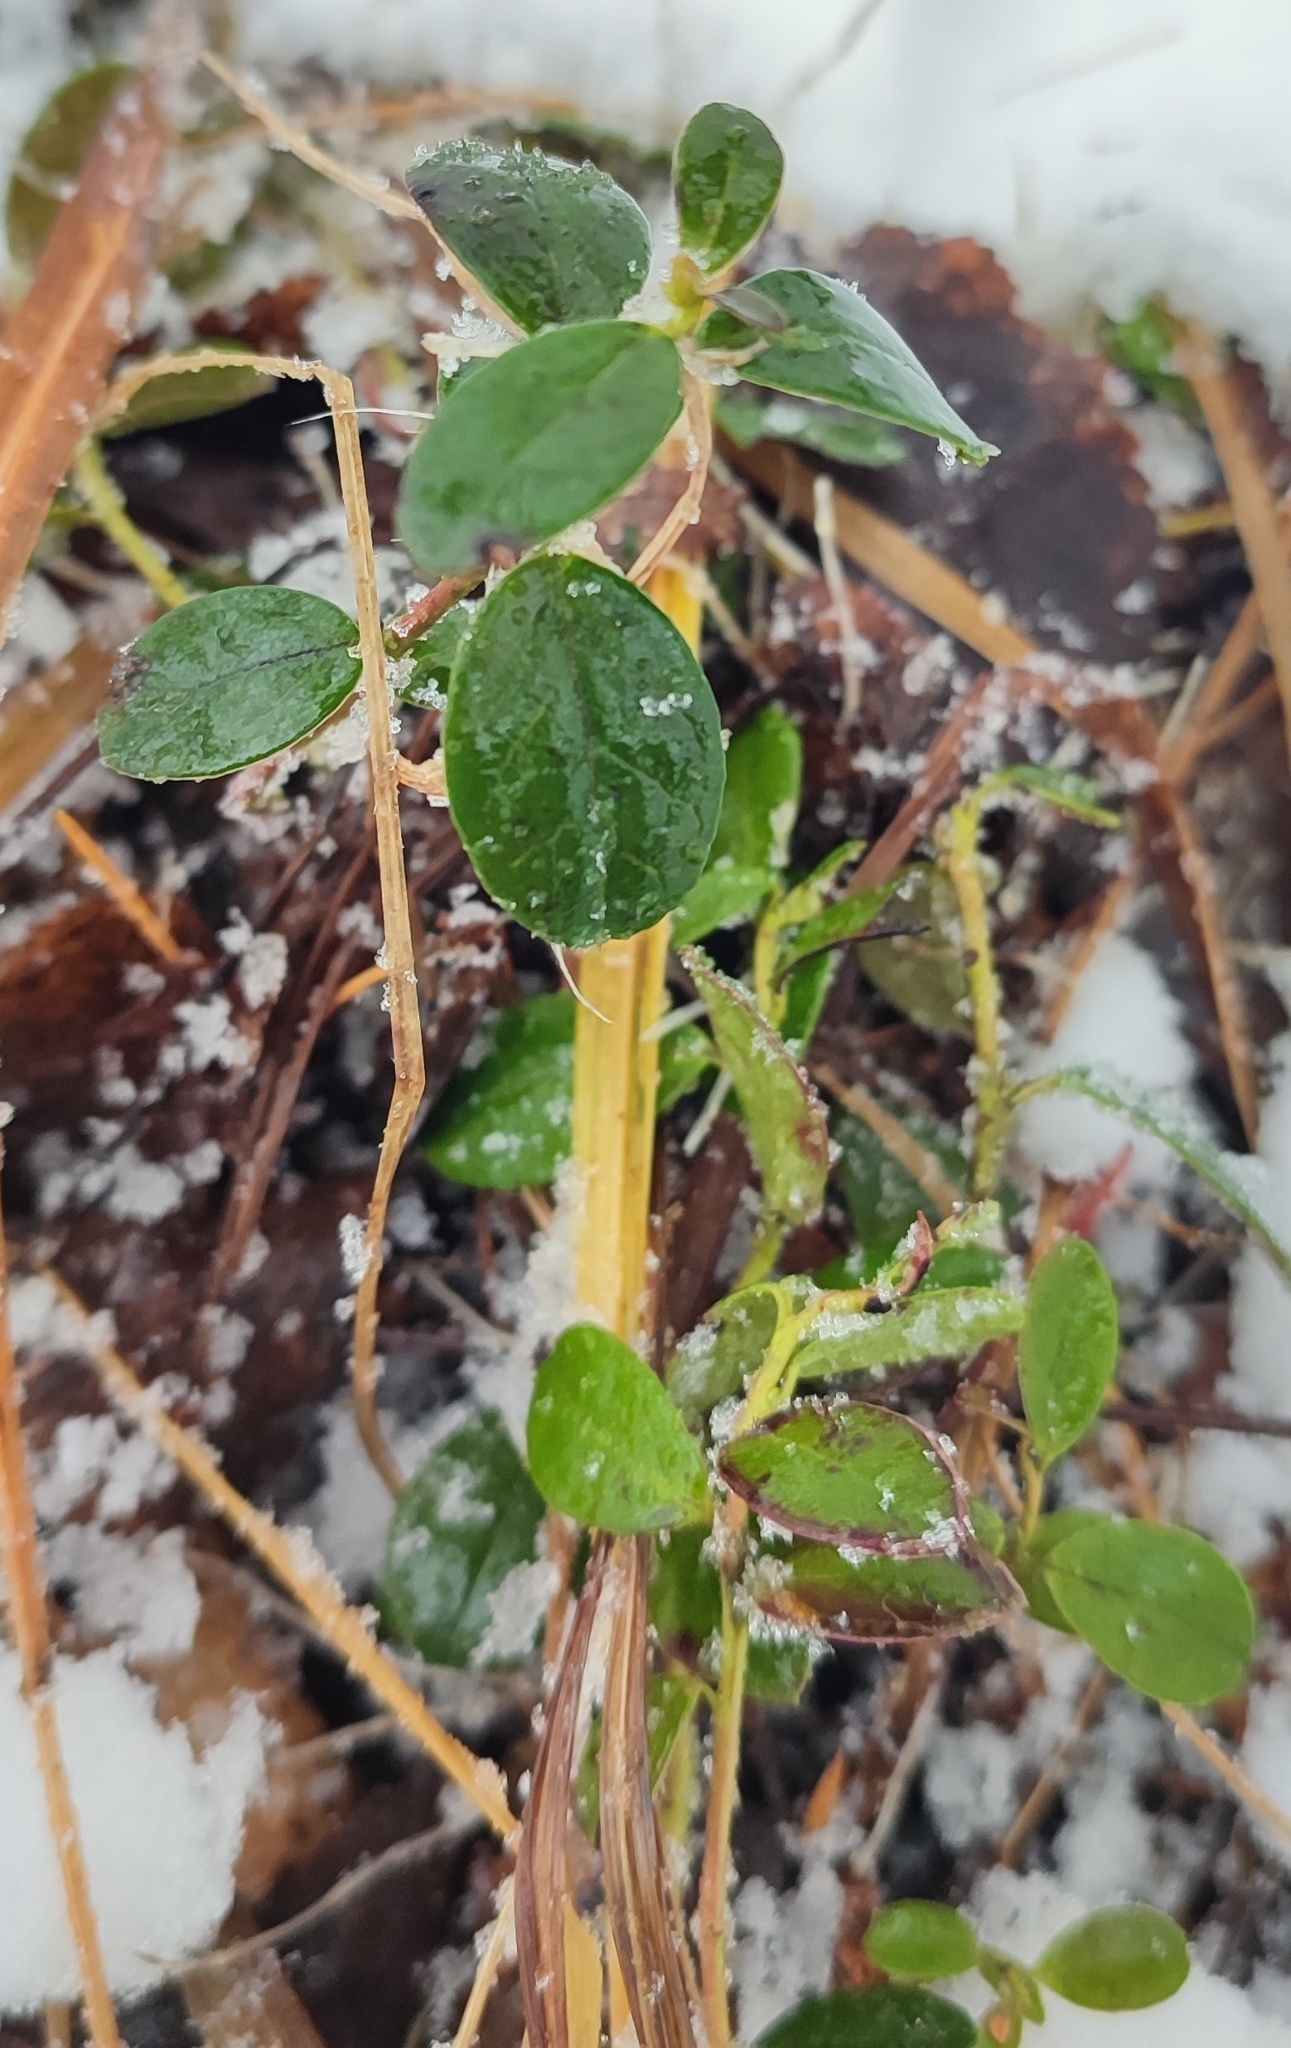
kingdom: Plantae
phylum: Tracheophyta
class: Magnoliopsida
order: Ericales
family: Ericaceae
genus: Vaccinium
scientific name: Vaccinium vitis-idaea
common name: Cowberry
